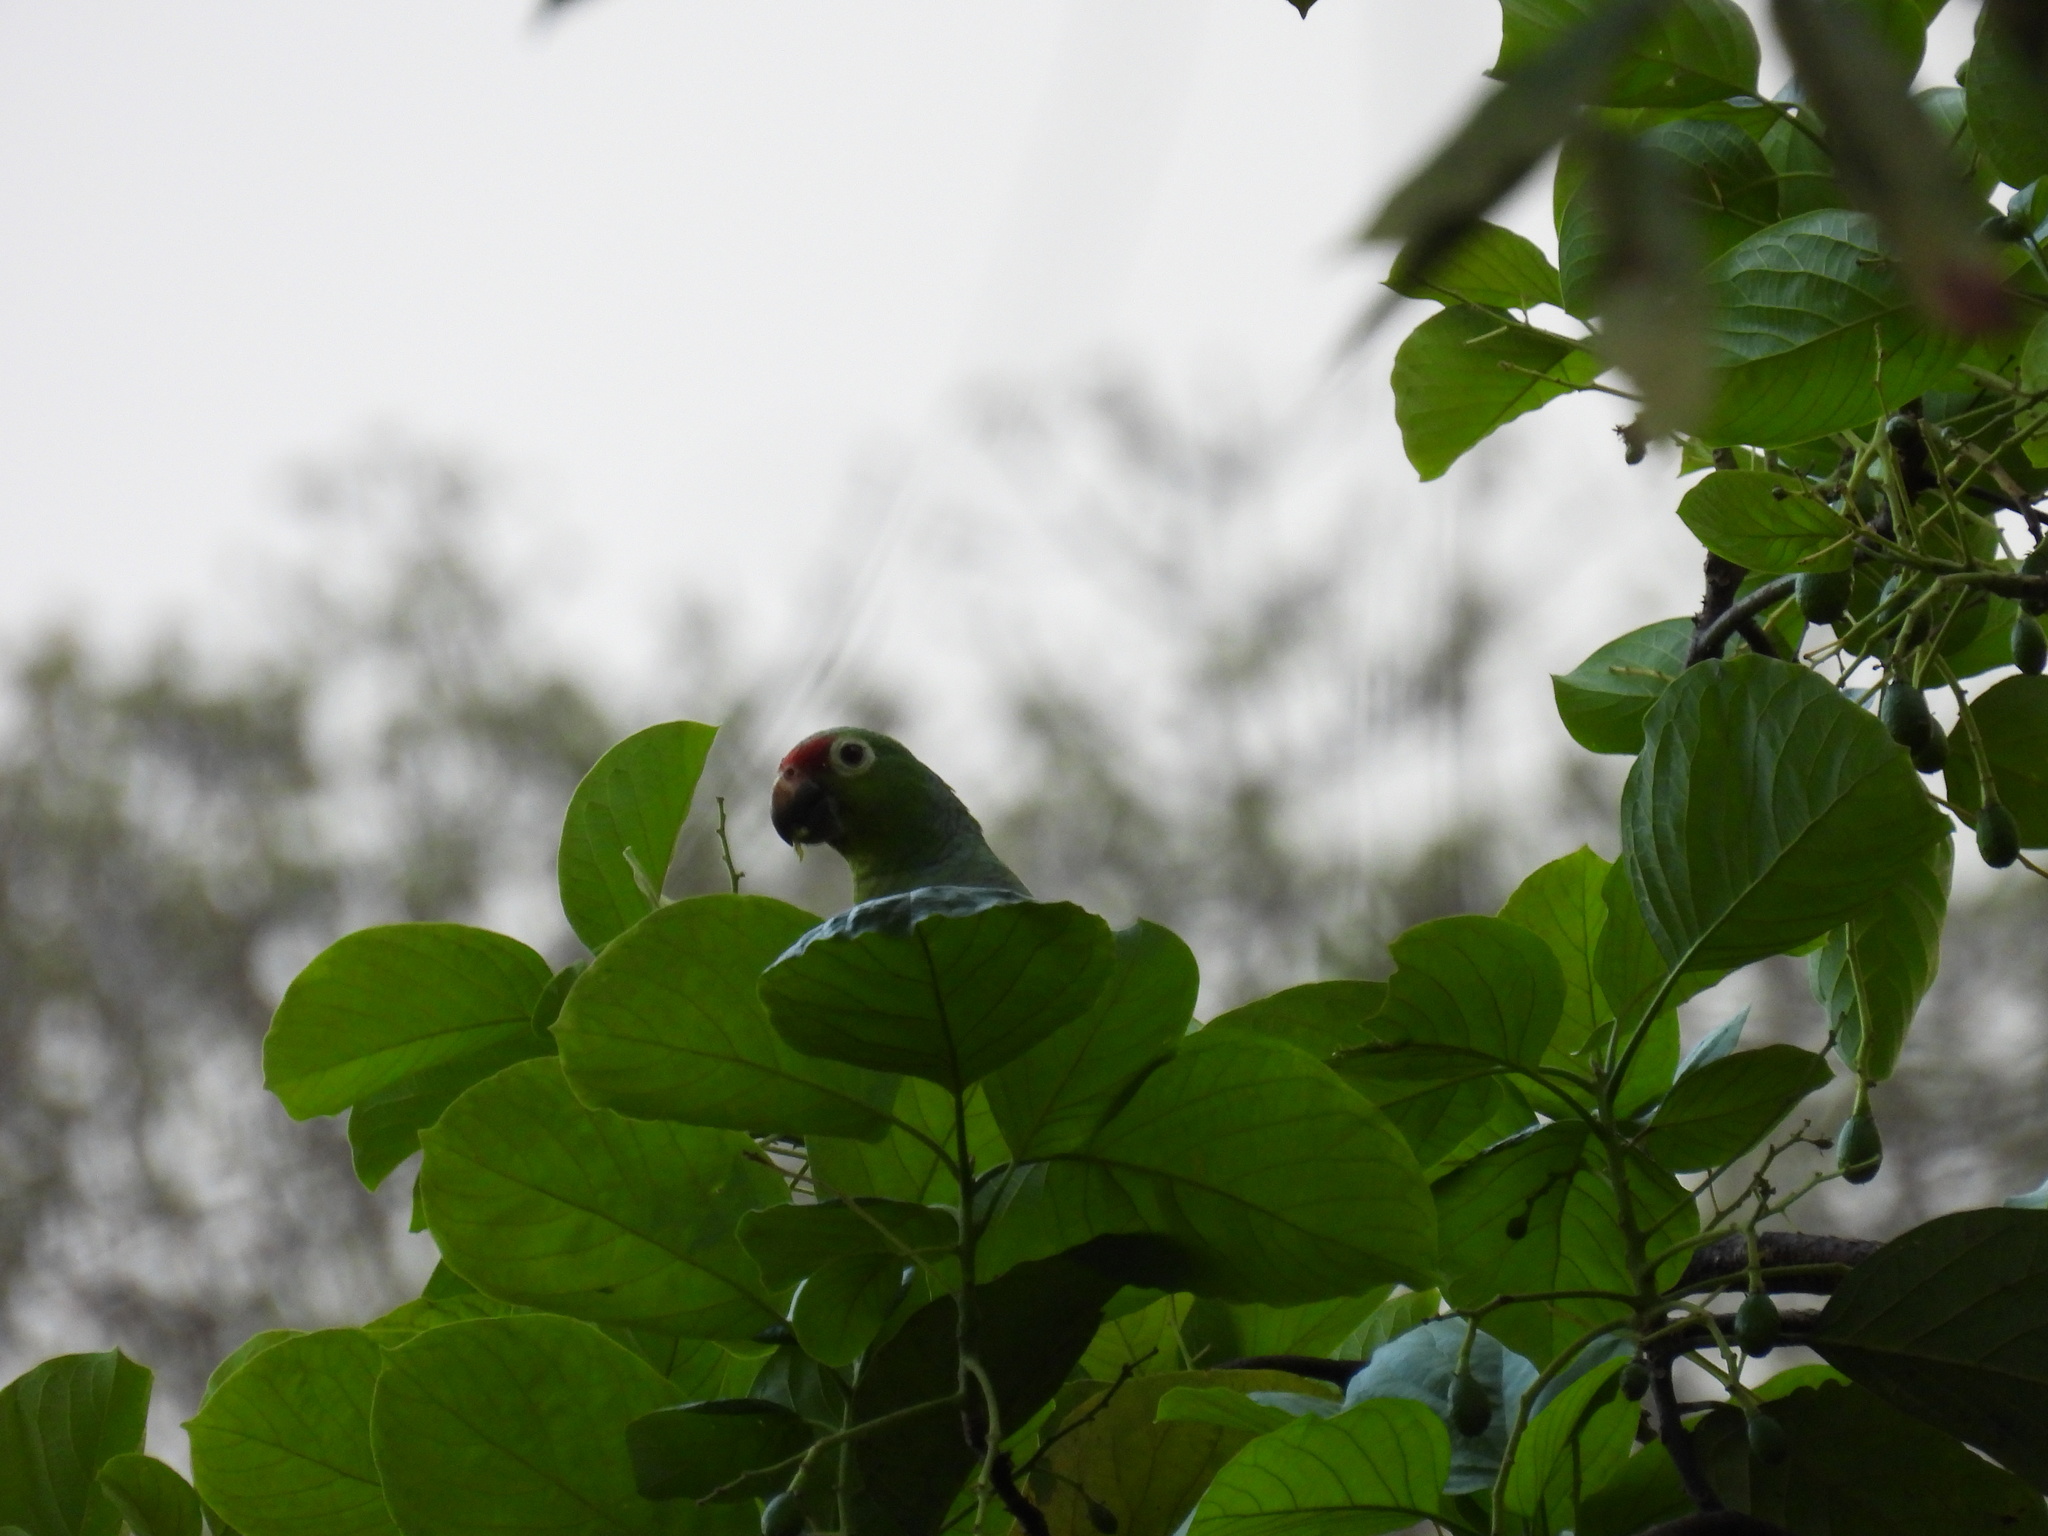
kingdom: Animalia
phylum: Chordata
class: Aves
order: Psittaciformes
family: Psittacidae
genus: Amazona
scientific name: Amazona autumnalis
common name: Red-lored amazon
